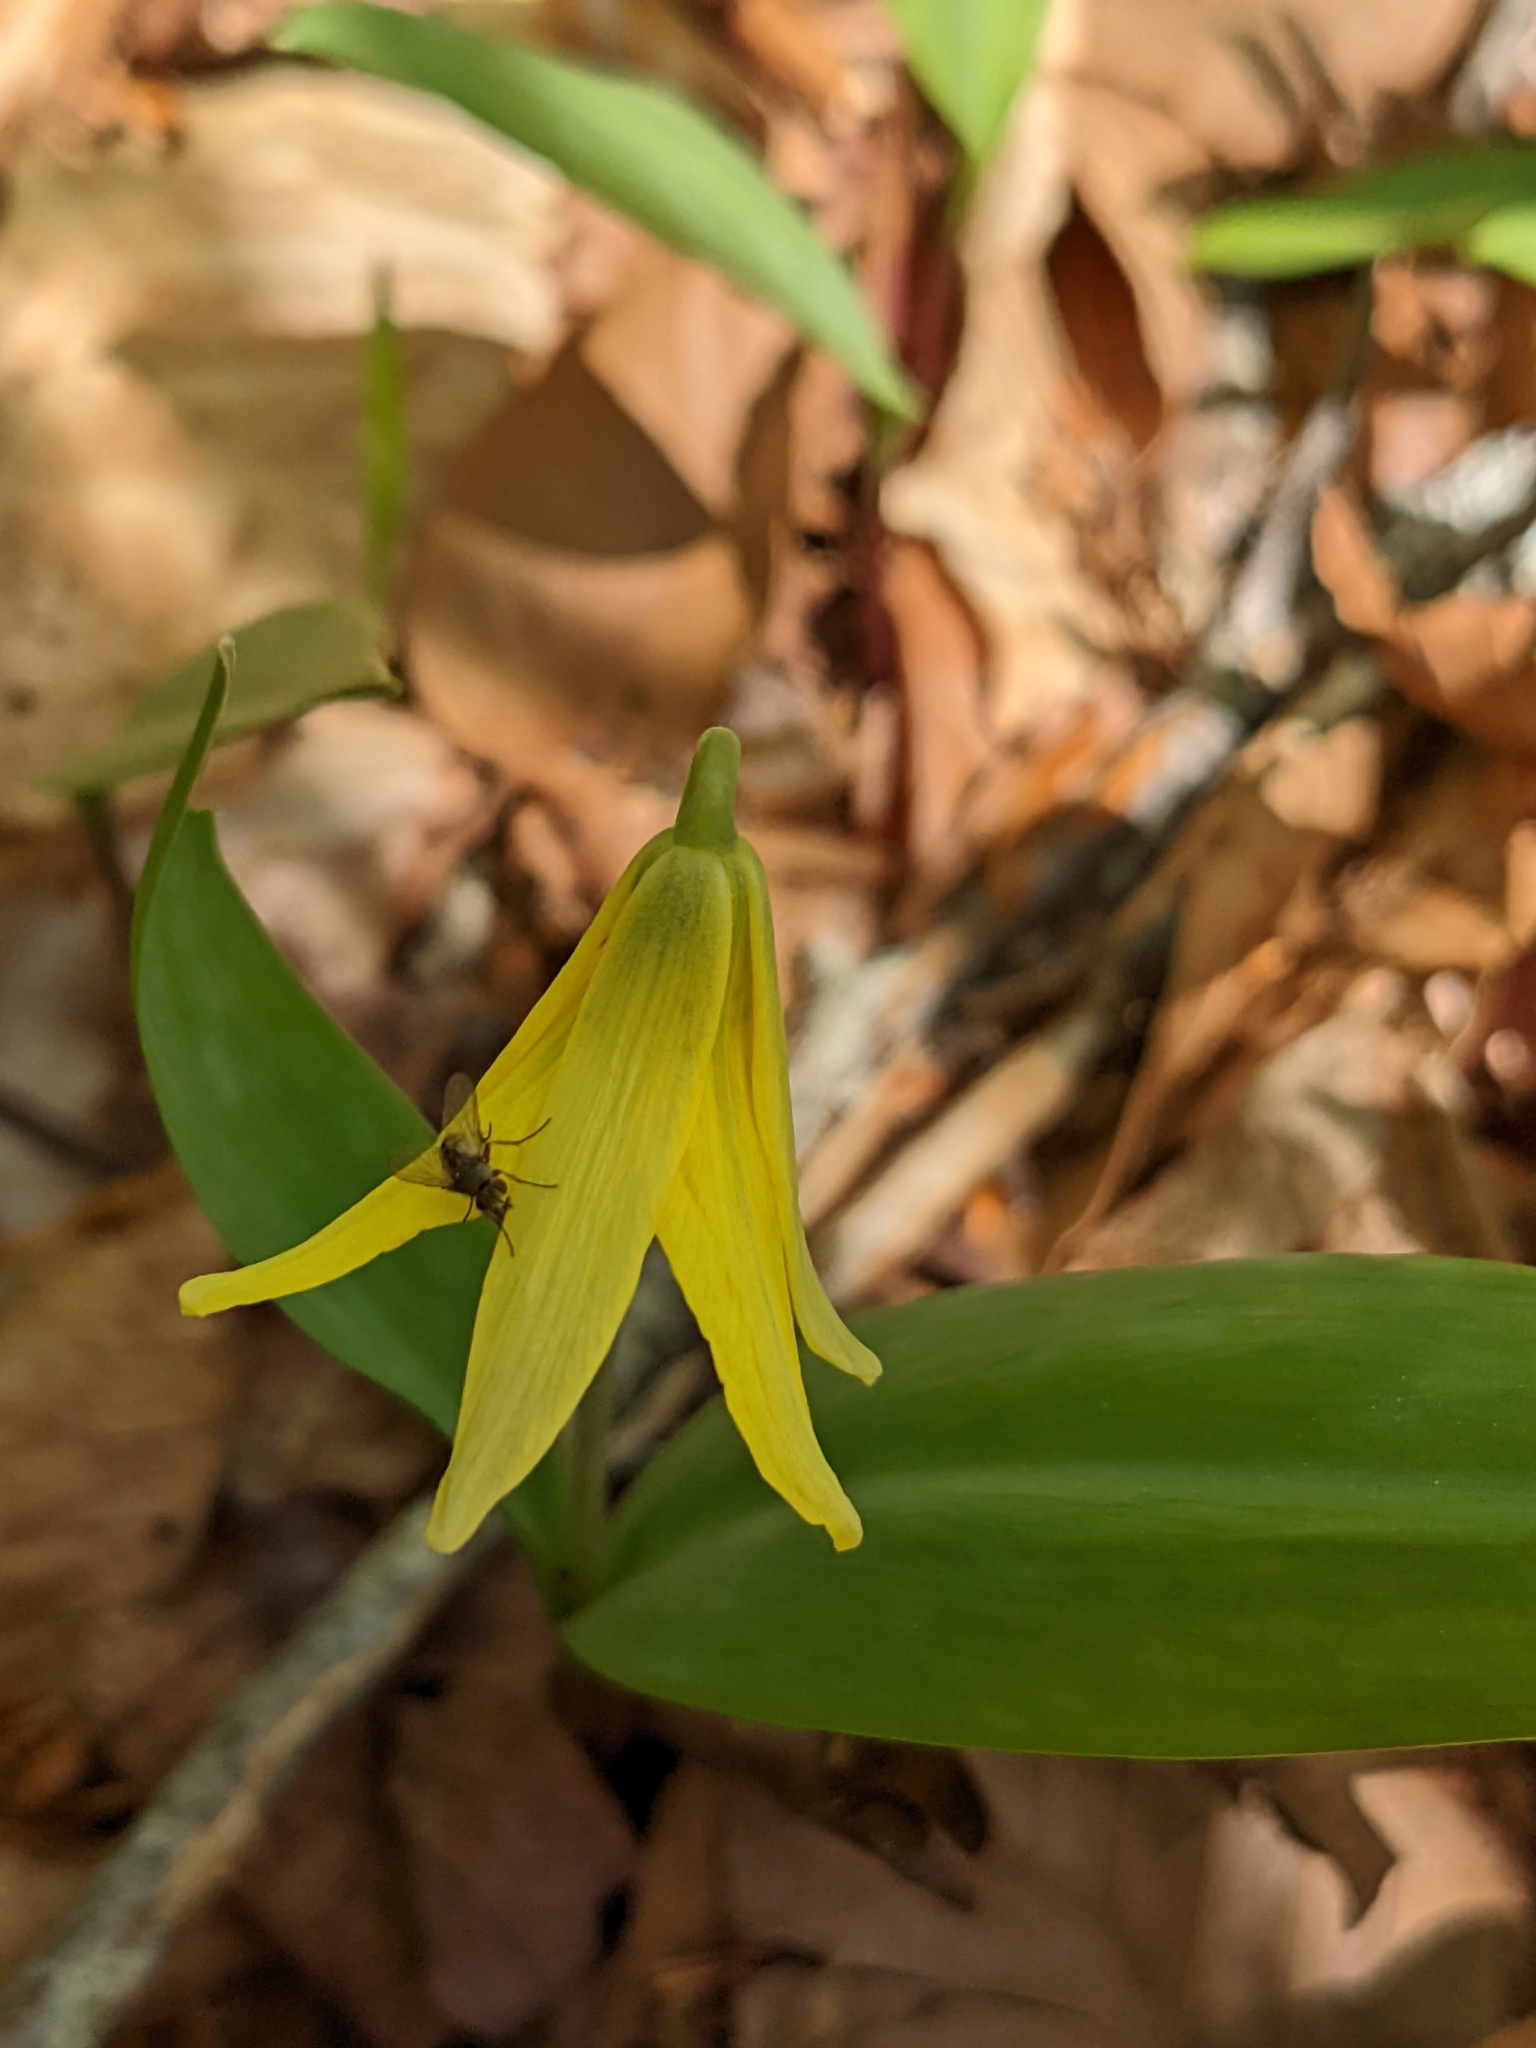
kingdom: Plantae
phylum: Tracheophyta
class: Liliopsida
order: Liliales
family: Liliaceae
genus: Erythronium
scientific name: Erythronium americanum
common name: Yellow adder's-tongue
